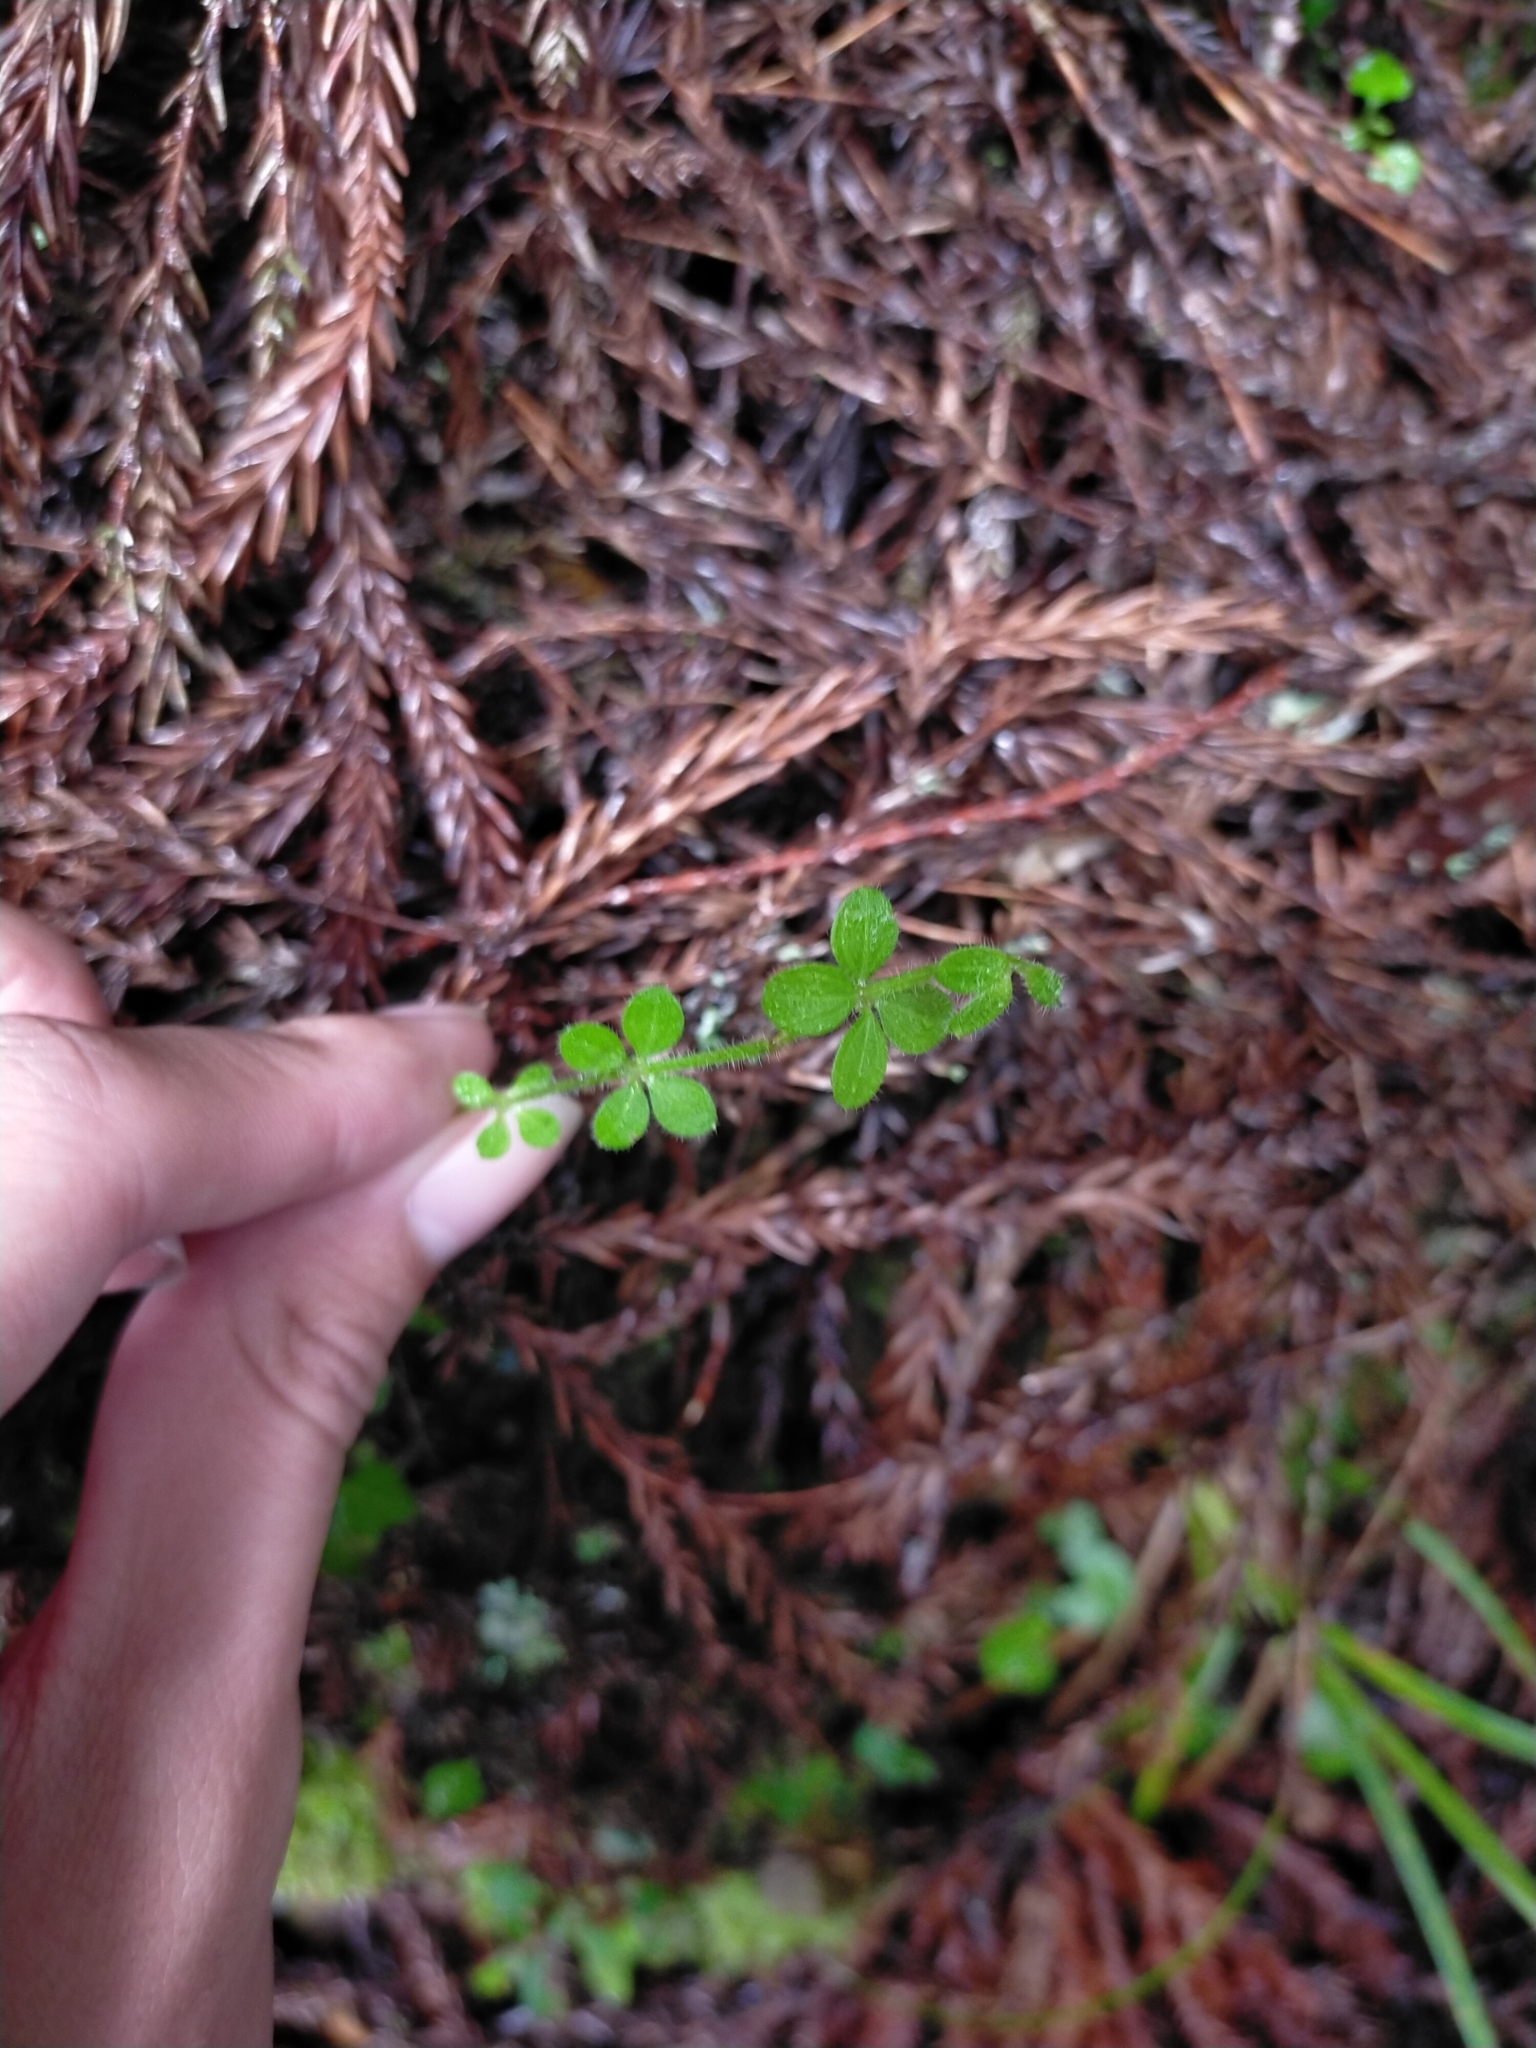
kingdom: Plantae
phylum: Tracheophyta
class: Magnoliopsida
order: Gentianales
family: Rubiaceae
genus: Galium
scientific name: Galium formosense
